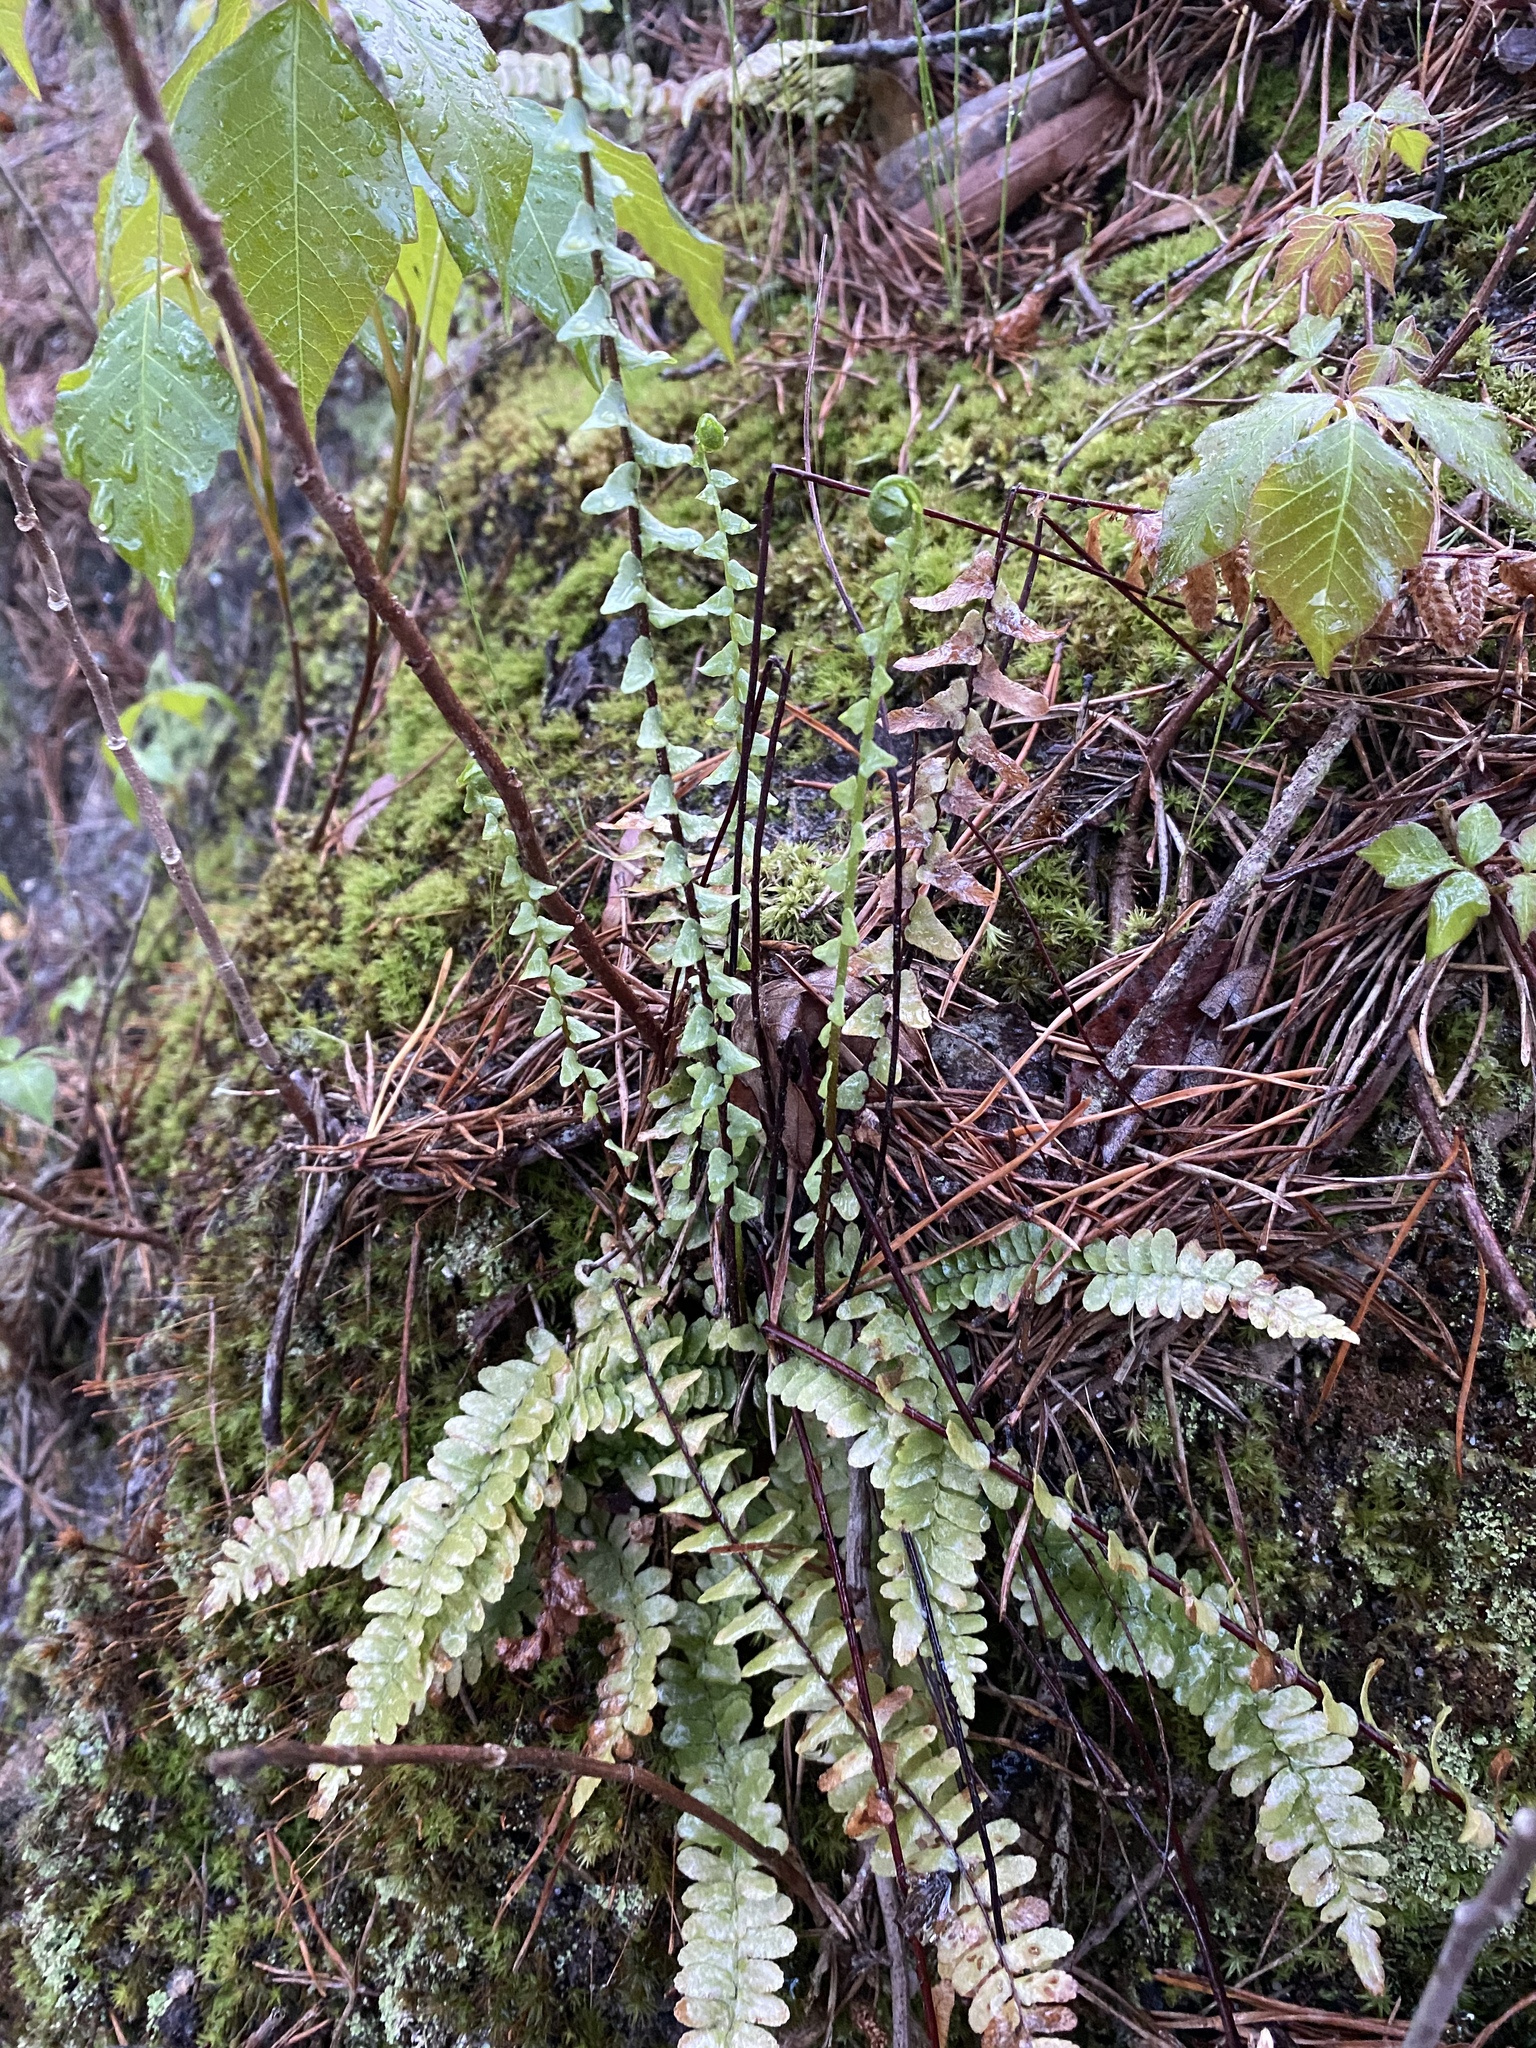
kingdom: Plantae
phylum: Tracheophyta
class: Polypodiopsida
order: Polypodiales
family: Aspleniaceae
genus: Asplenium
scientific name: Asplenium platyneuron
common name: Ebony spleenwort
